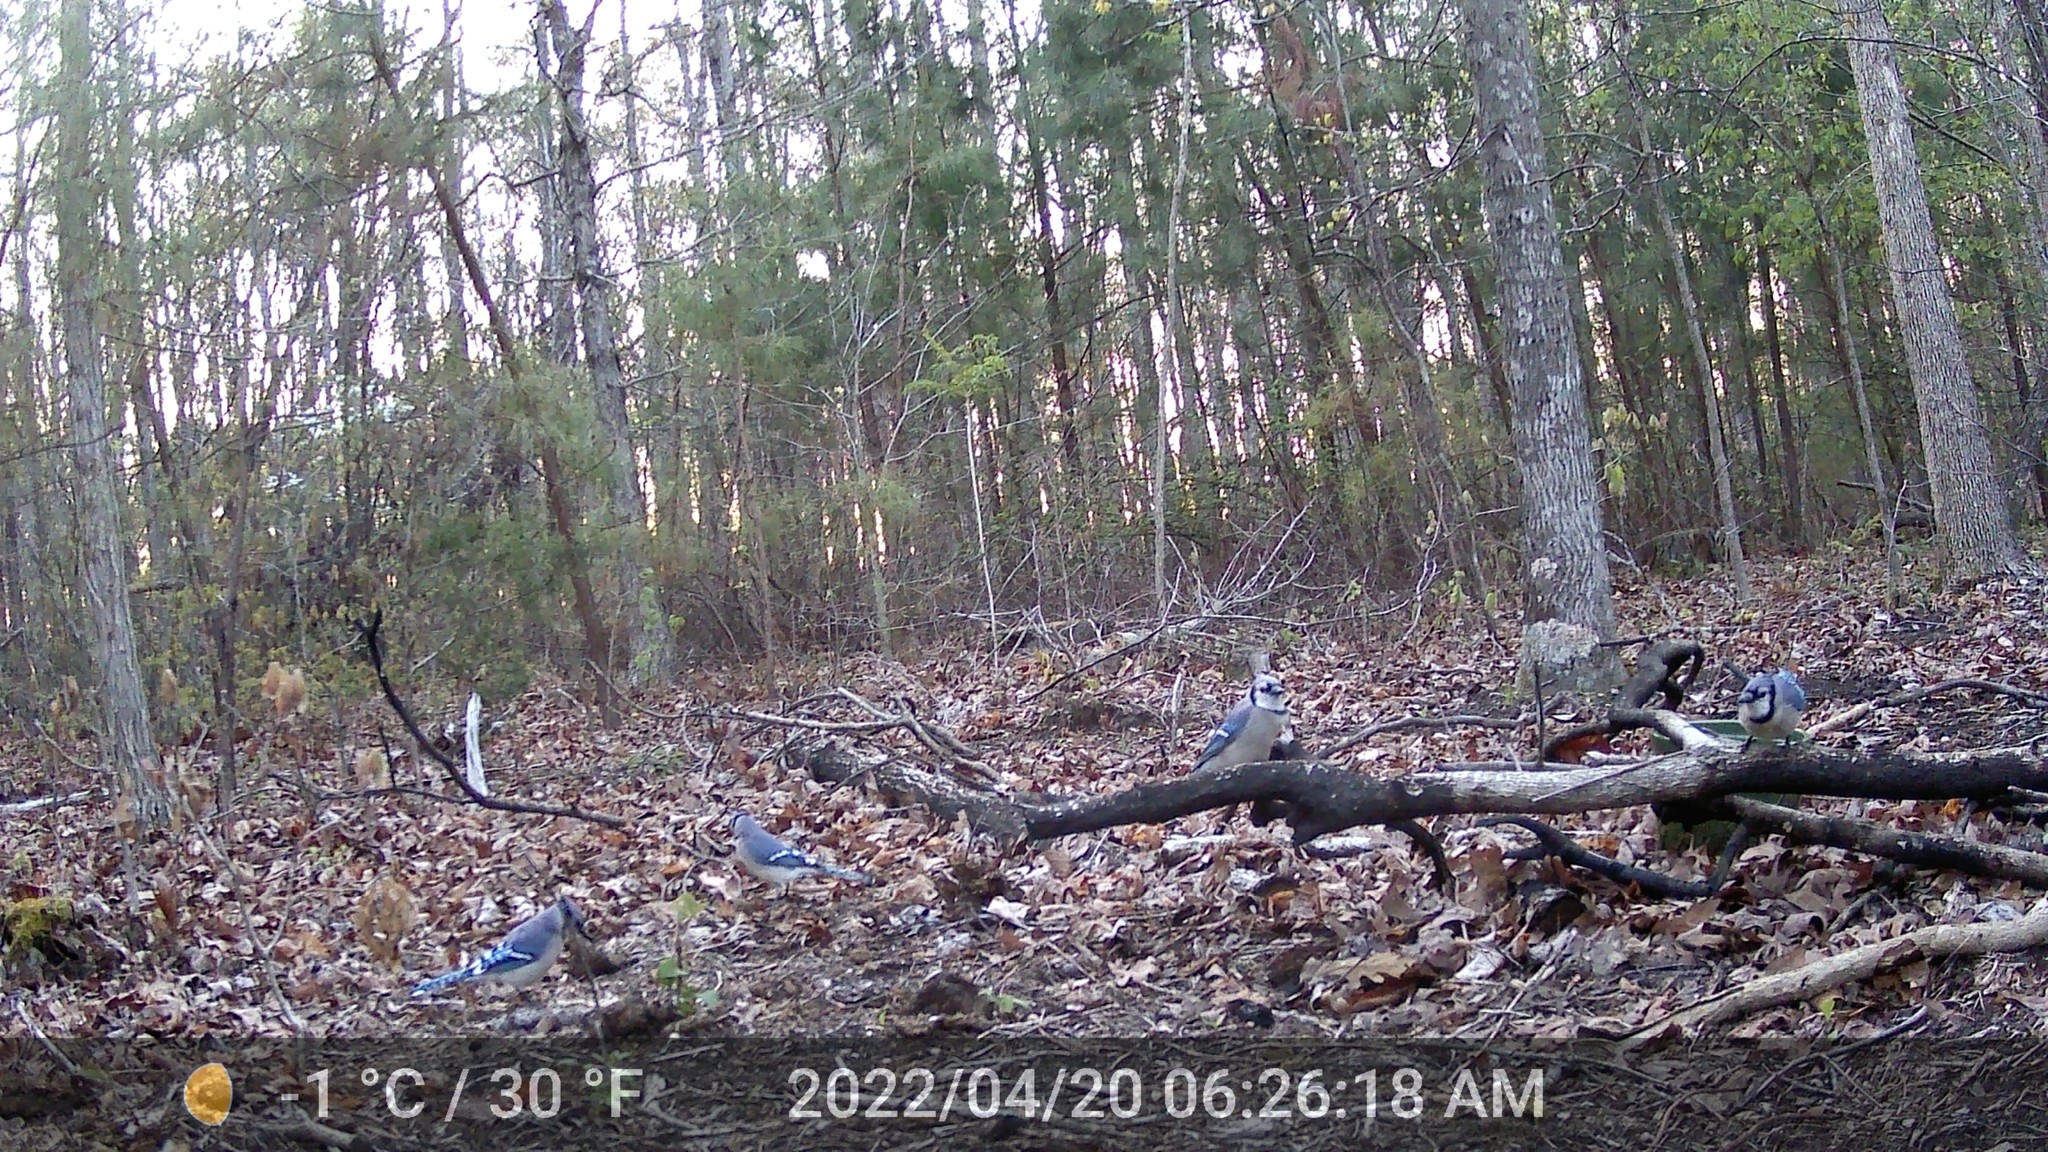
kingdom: Animalia
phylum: Chordata
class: Aves
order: Passeriformes
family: Corvidae
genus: Cyanocitta
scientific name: Cyanocitta cristata
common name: Blue jay
